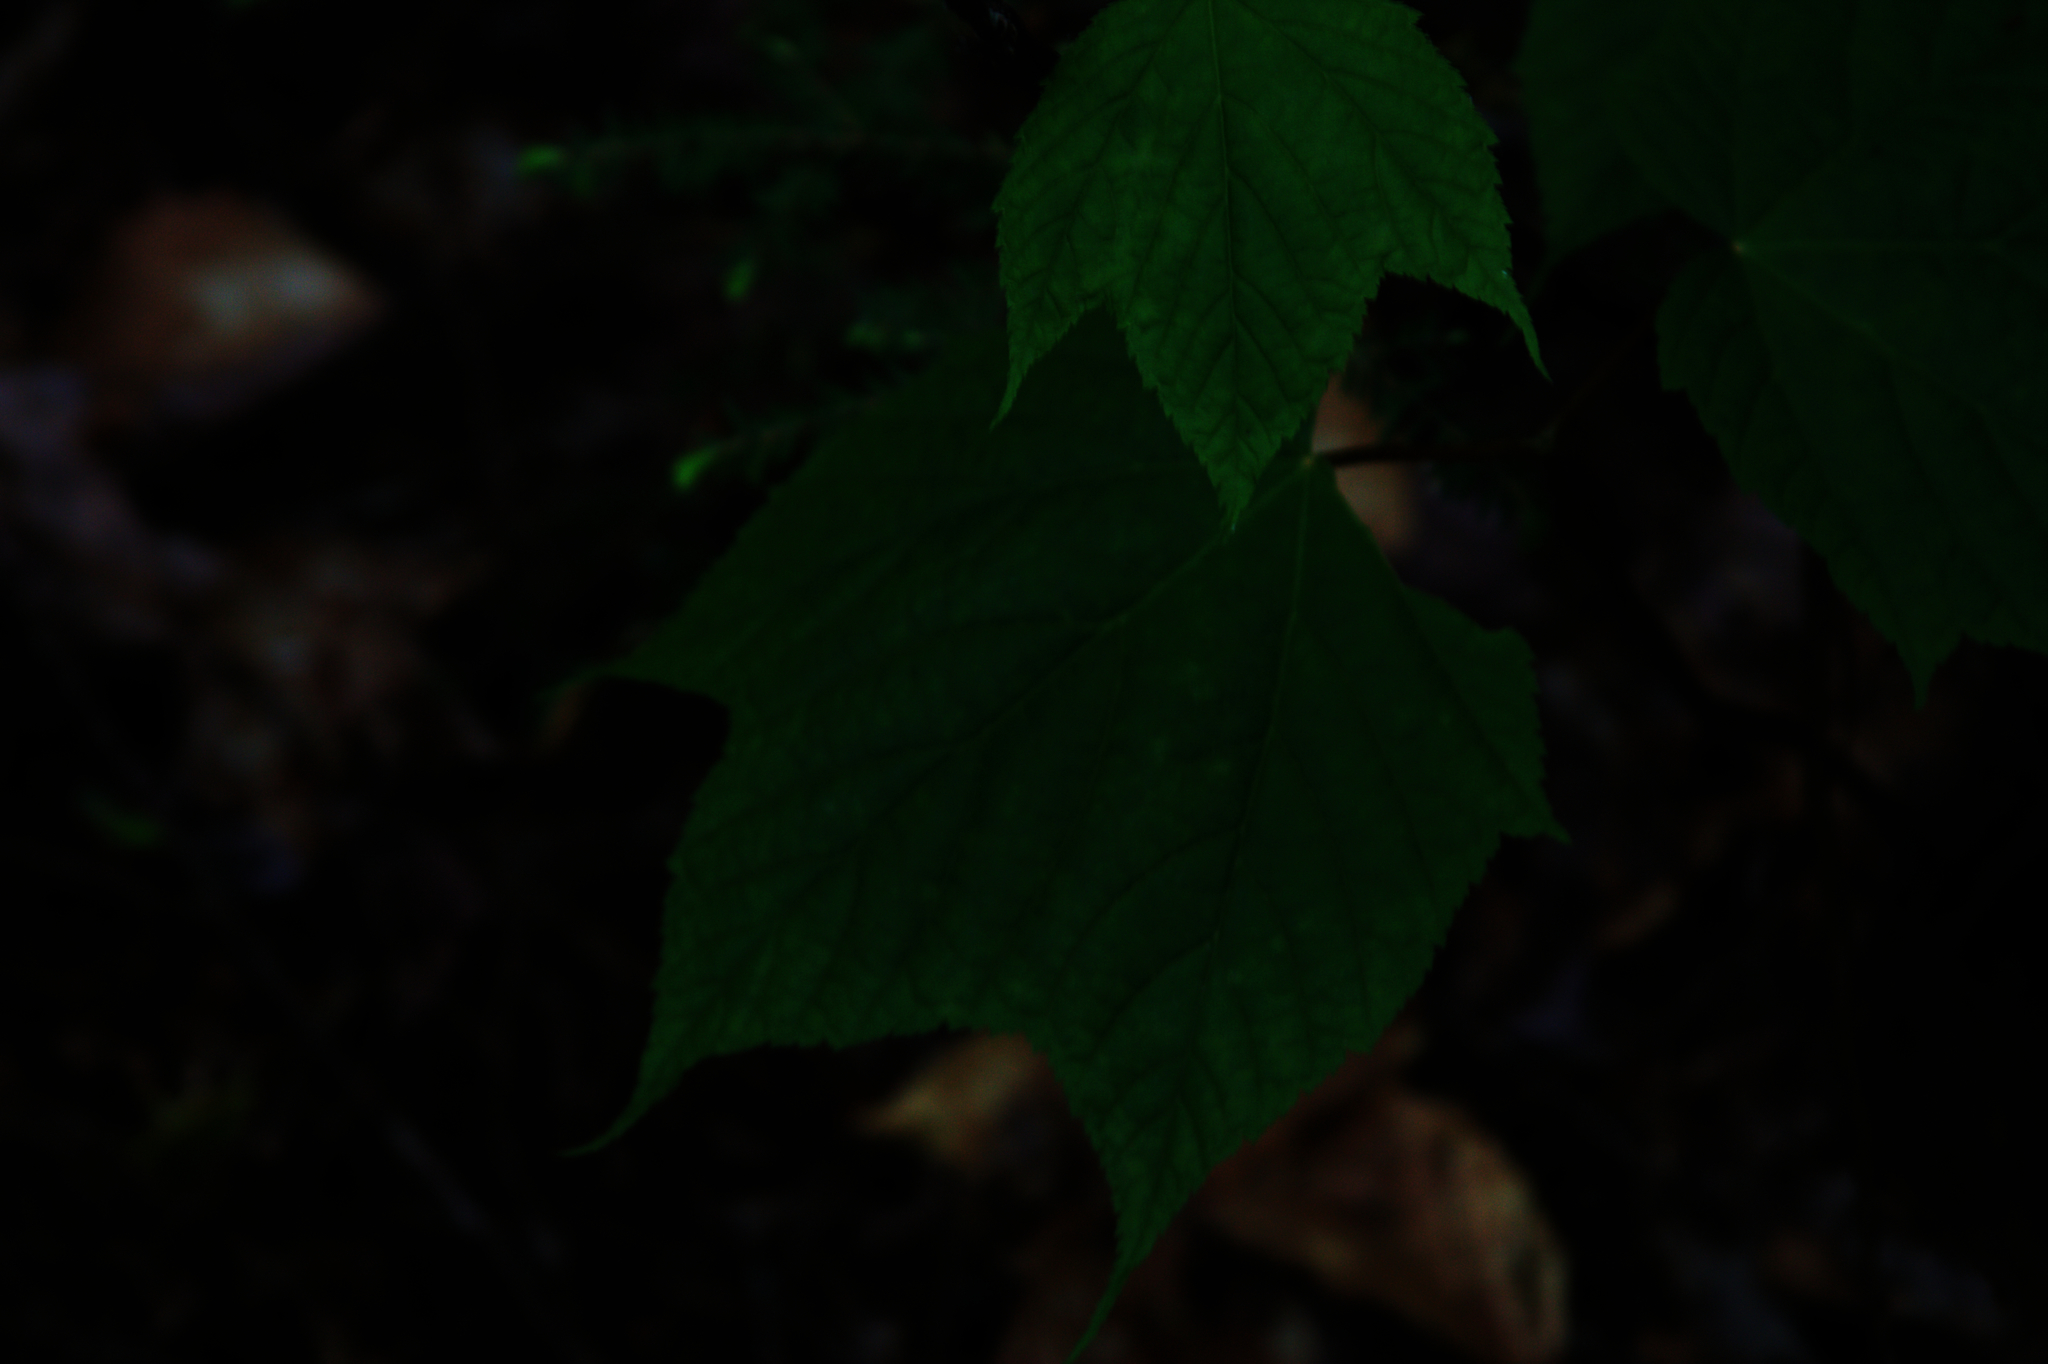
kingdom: Plantae
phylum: Tracheophyta
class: Magnoliopsida
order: Sapindales
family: Sapindaceae
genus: Acer
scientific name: Acer pensylvanicum
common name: Moosewood
